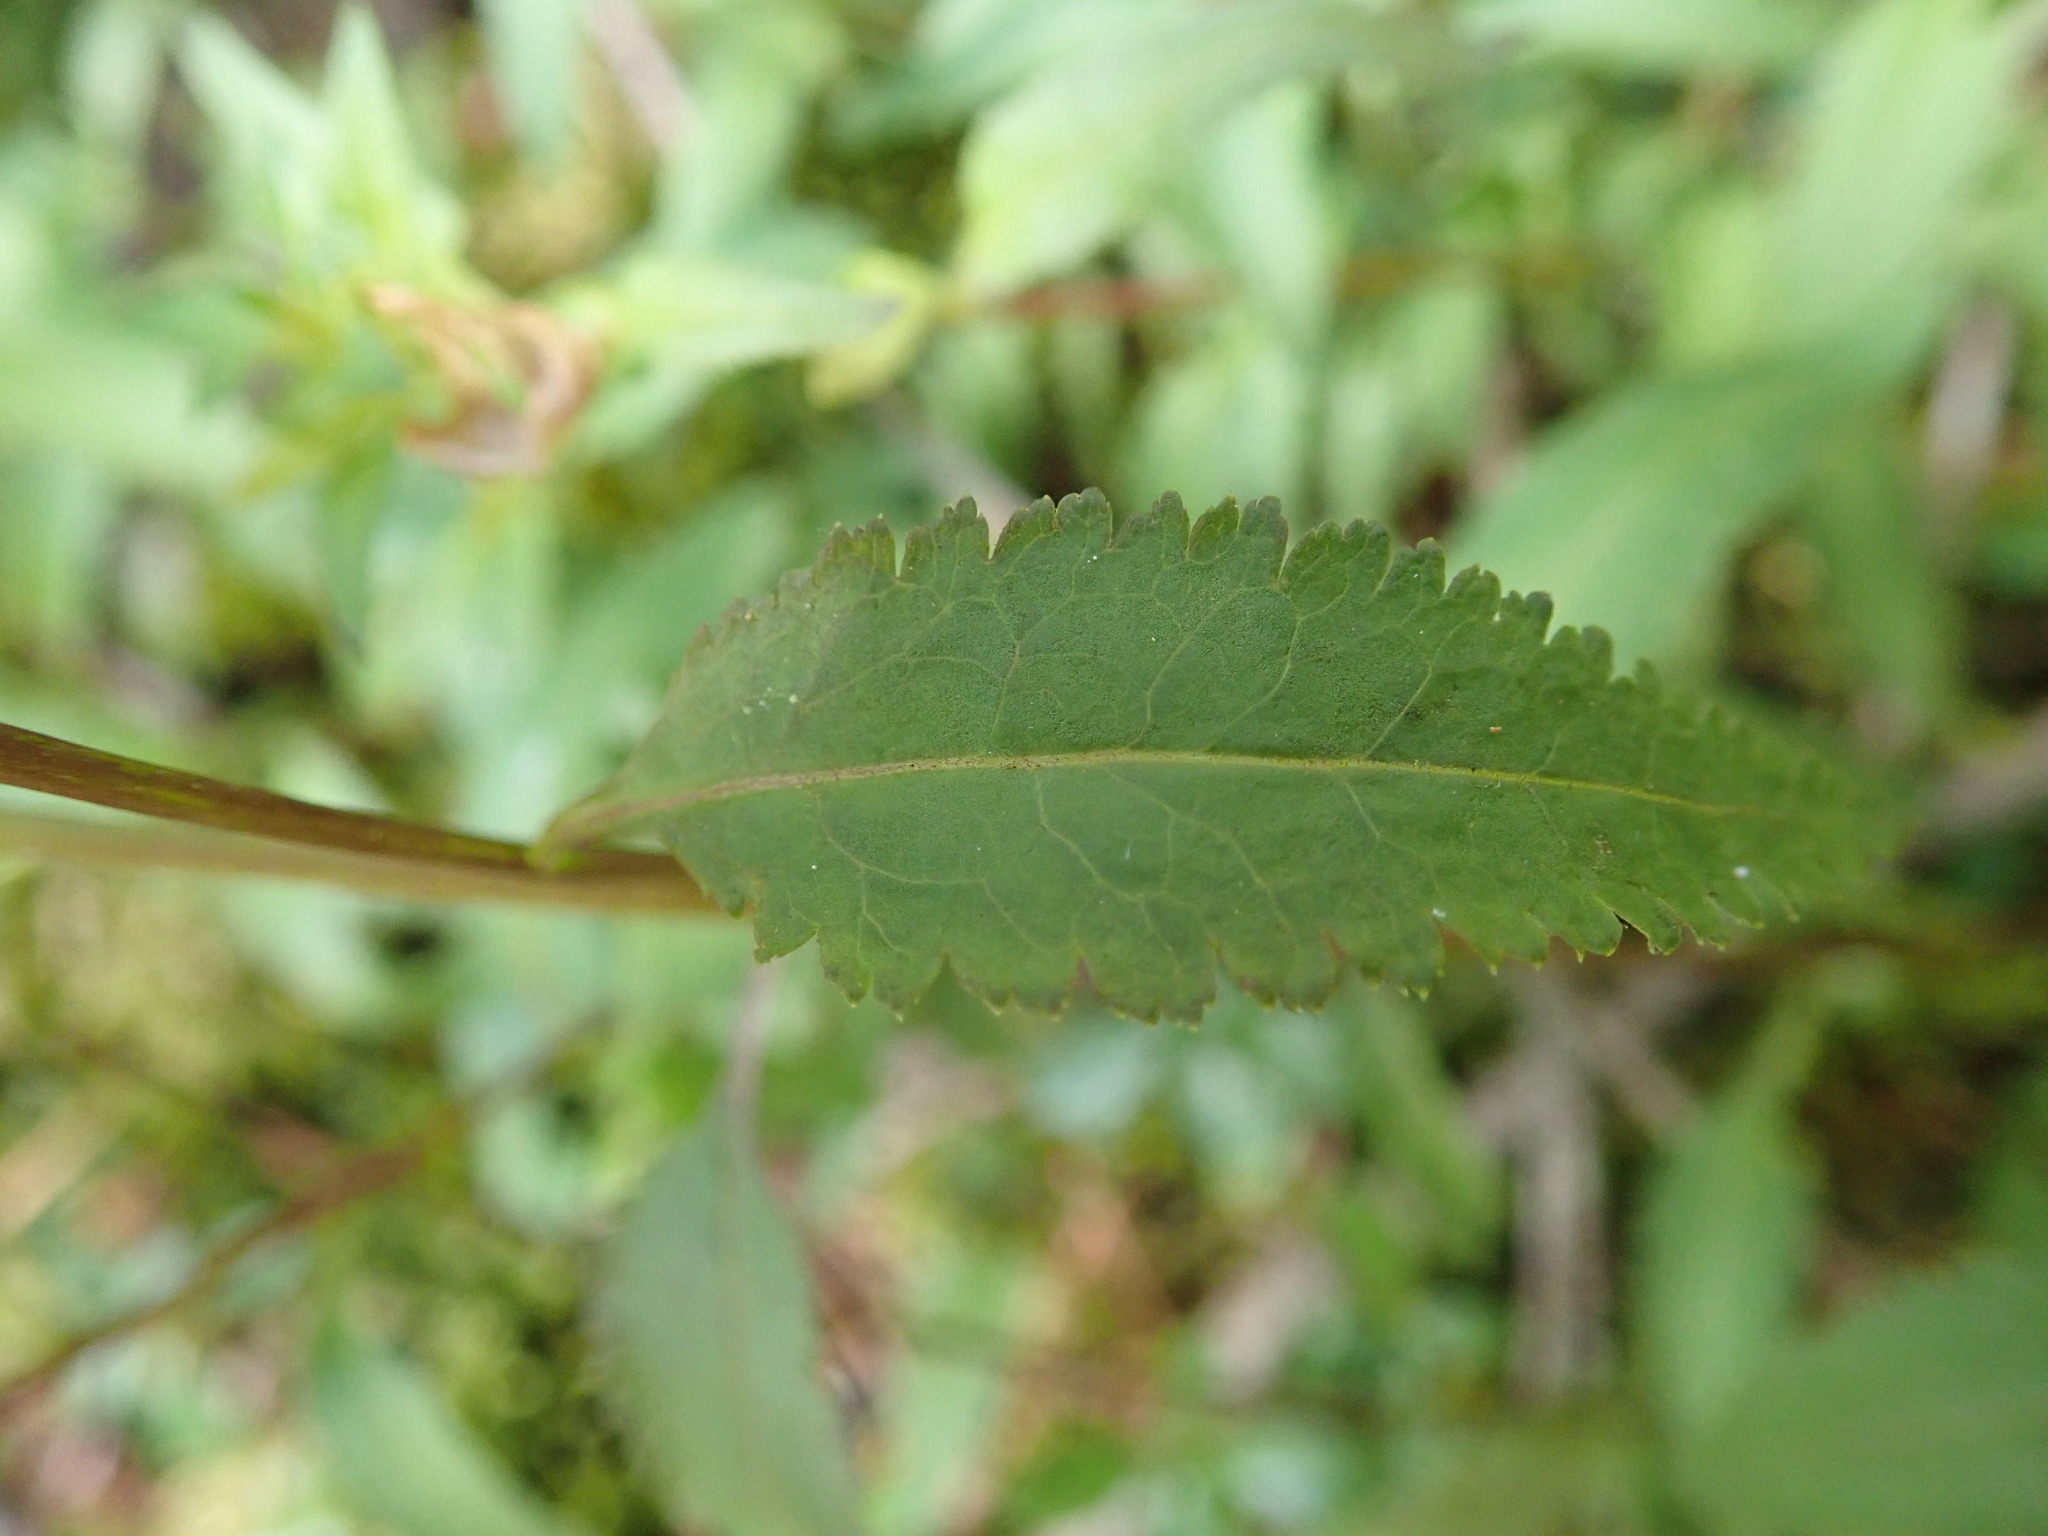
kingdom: Plantae
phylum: Tracheophyta
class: Magnoliopsida
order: Lamiales
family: Orobanchaceae
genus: Pedicularis
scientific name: Pedicularis racemosa
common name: Leafy lousewort
